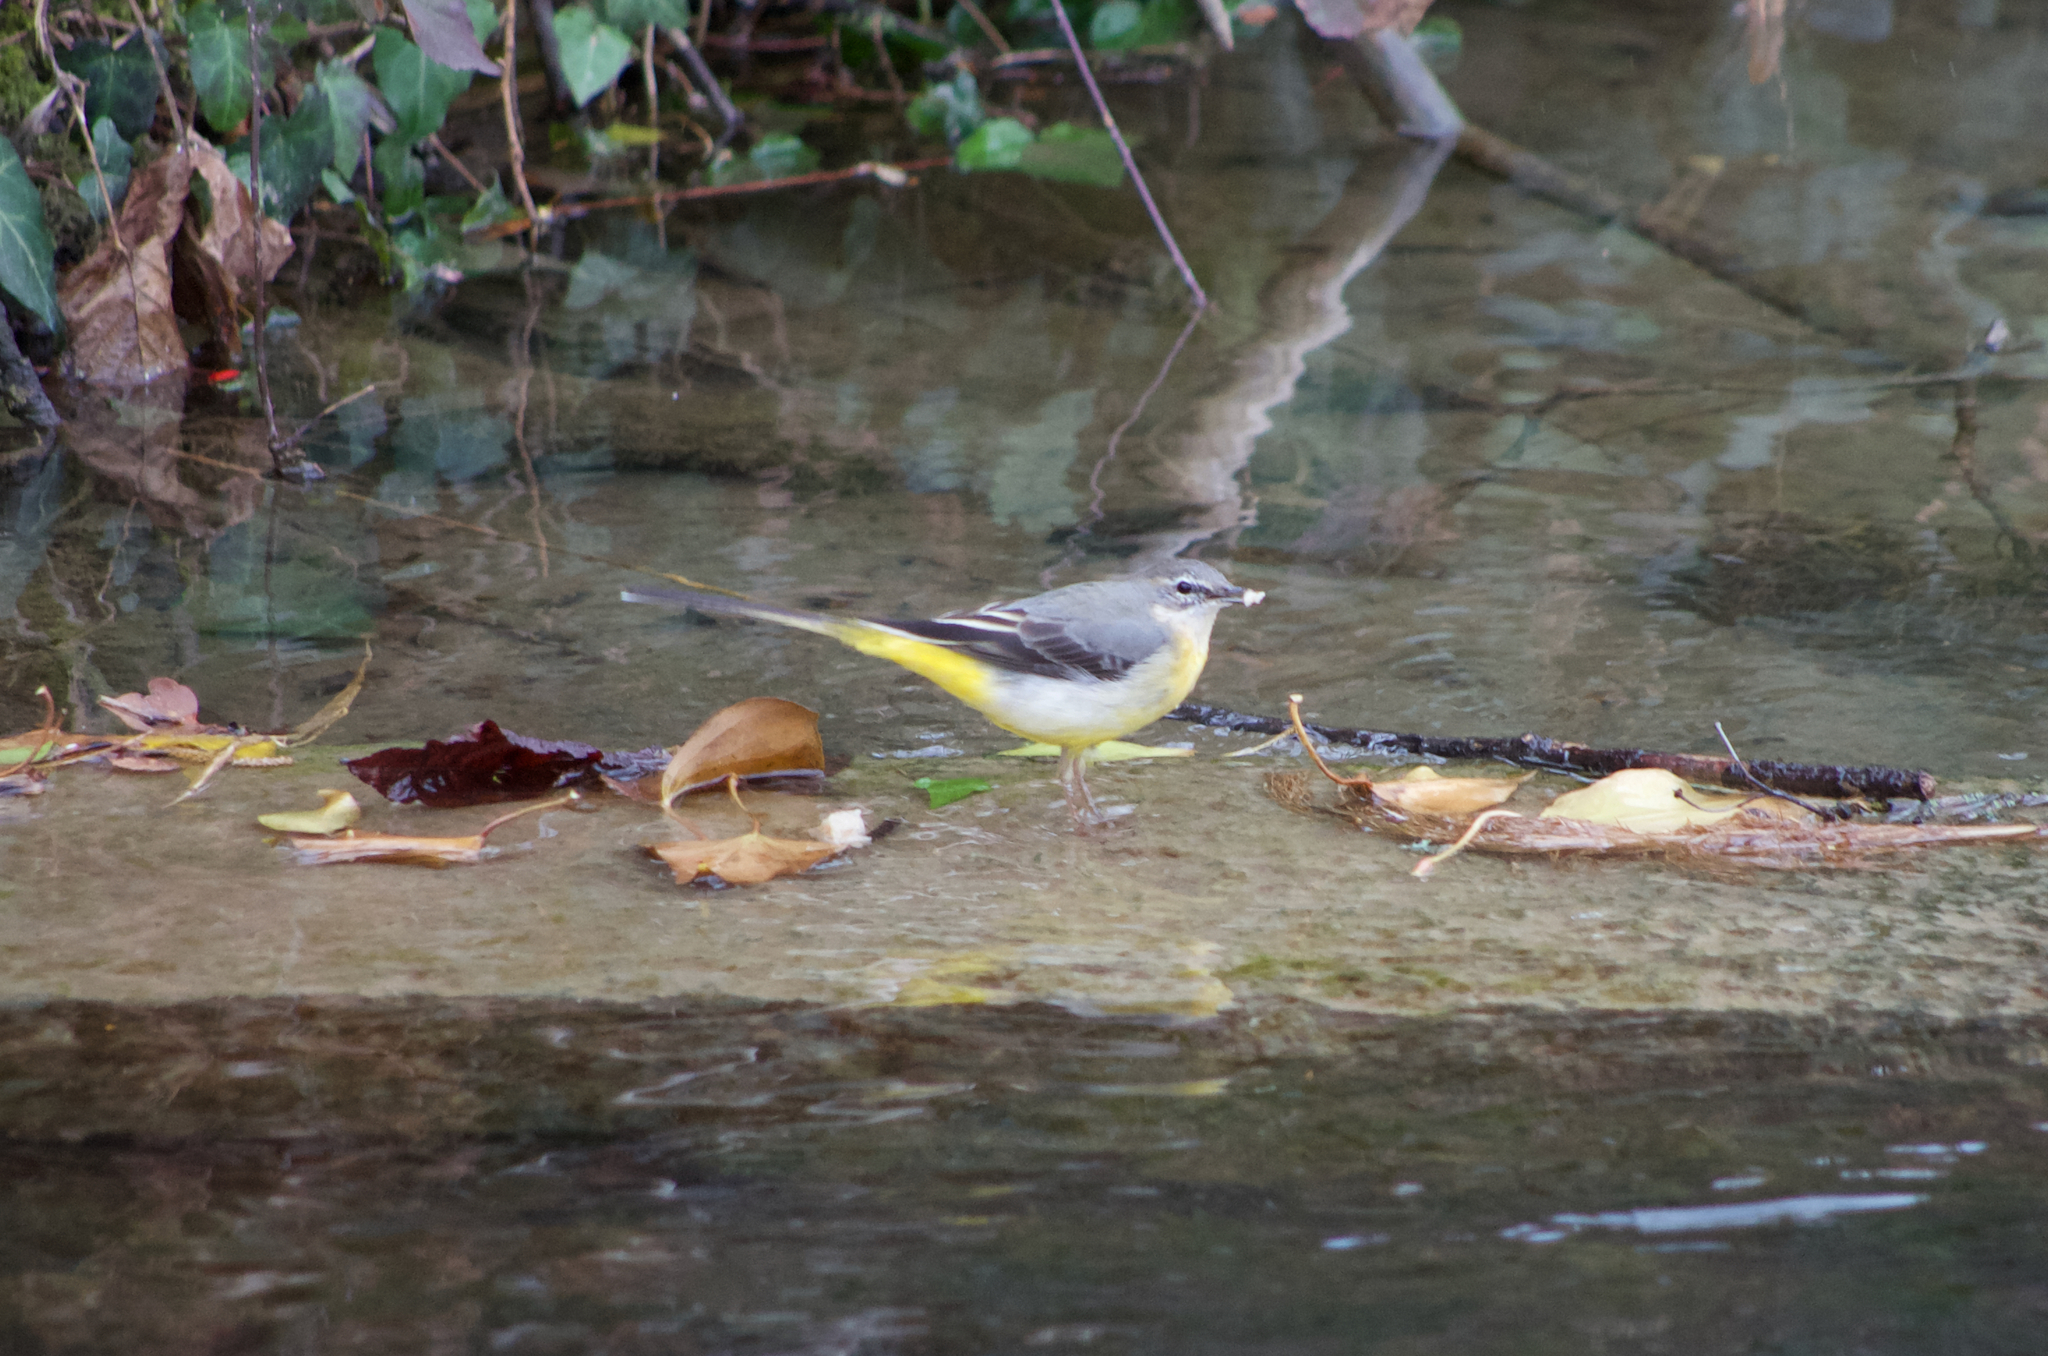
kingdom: Animalia
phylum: Chordata
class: Aves
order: Passeriformes
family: Motacillidae
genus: Motacilla
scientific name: Motacilla cinerea
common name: Grey wagtail
